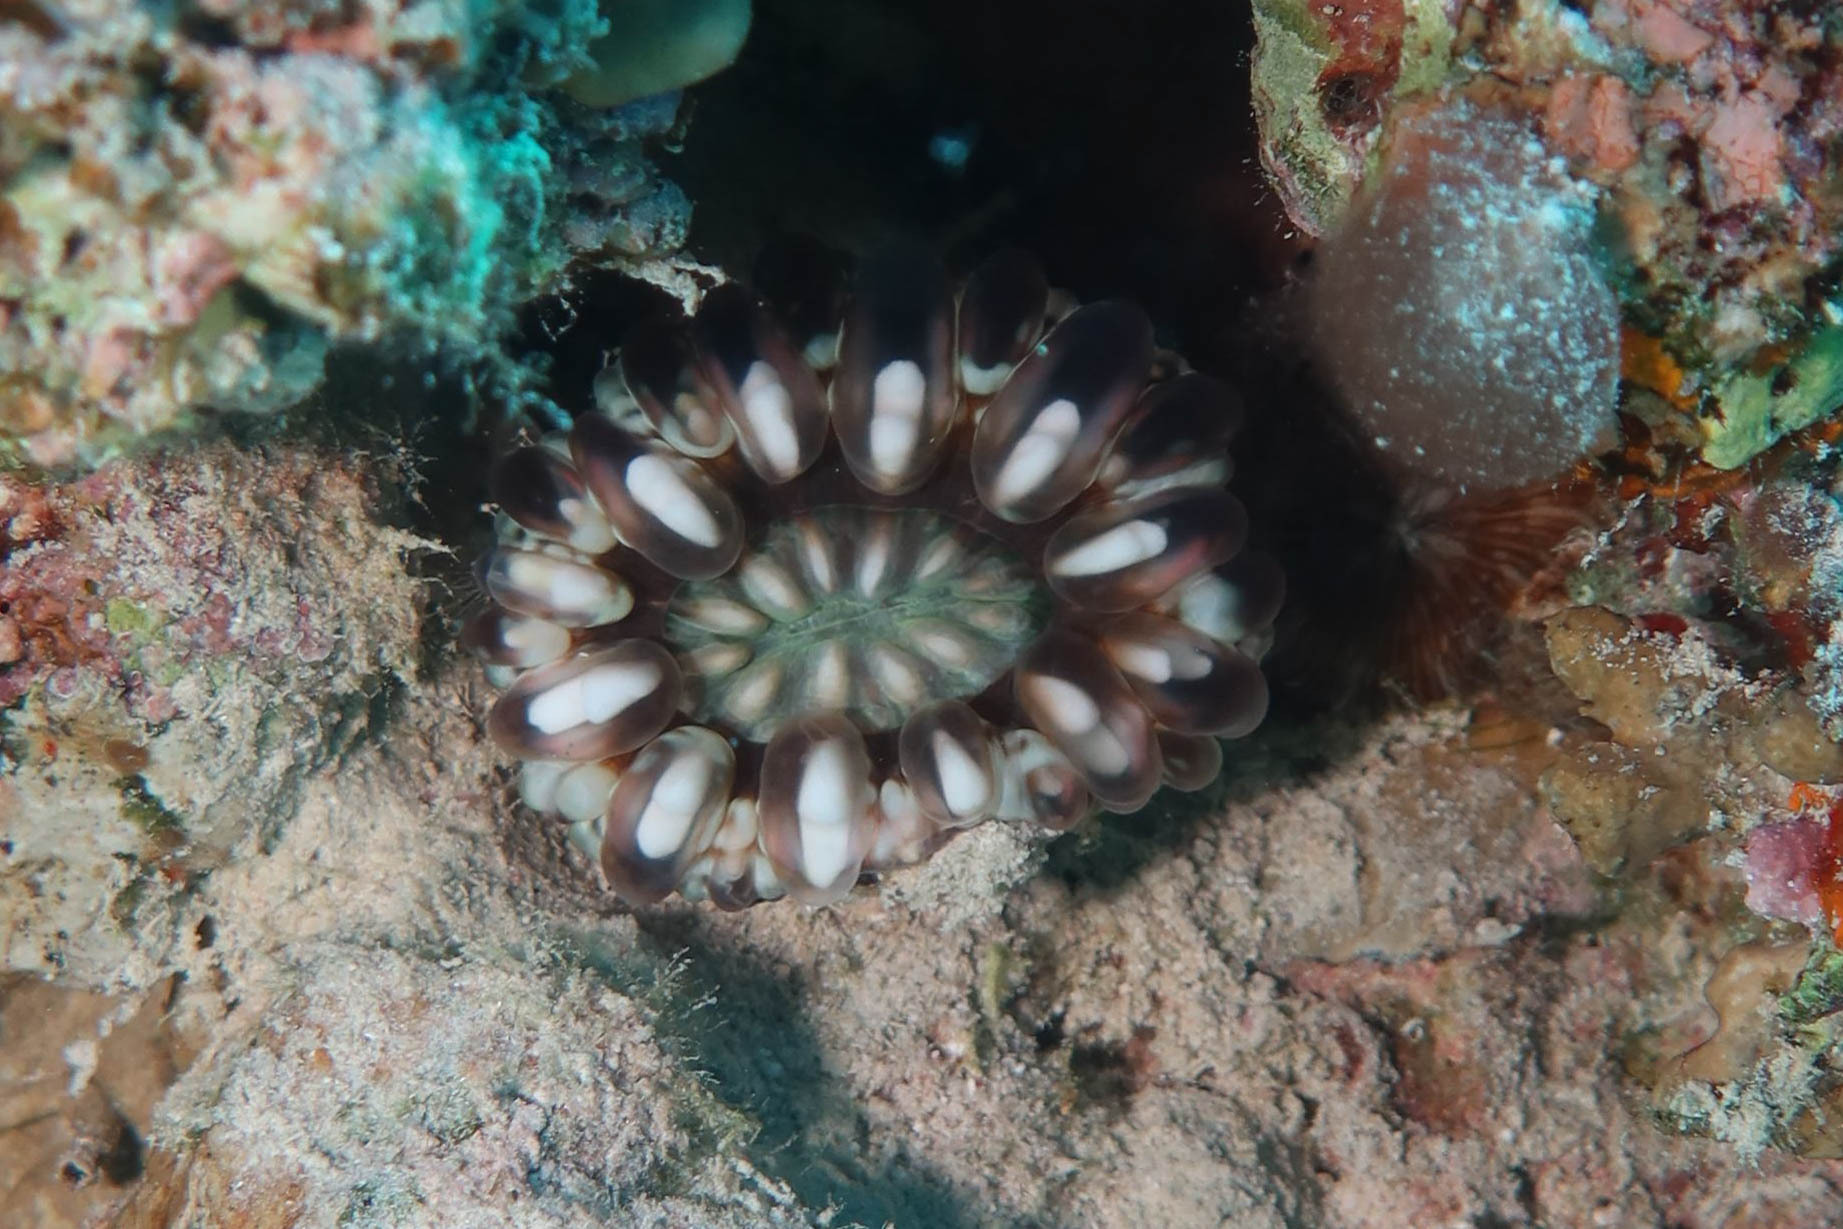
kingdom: Animalia
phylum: Cnidaria
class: Anthozoa
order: Scleractinia
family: Lobophylliidae
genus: Cynarina
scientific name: Cynarina lacrymalis
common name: Solitary cup coral
